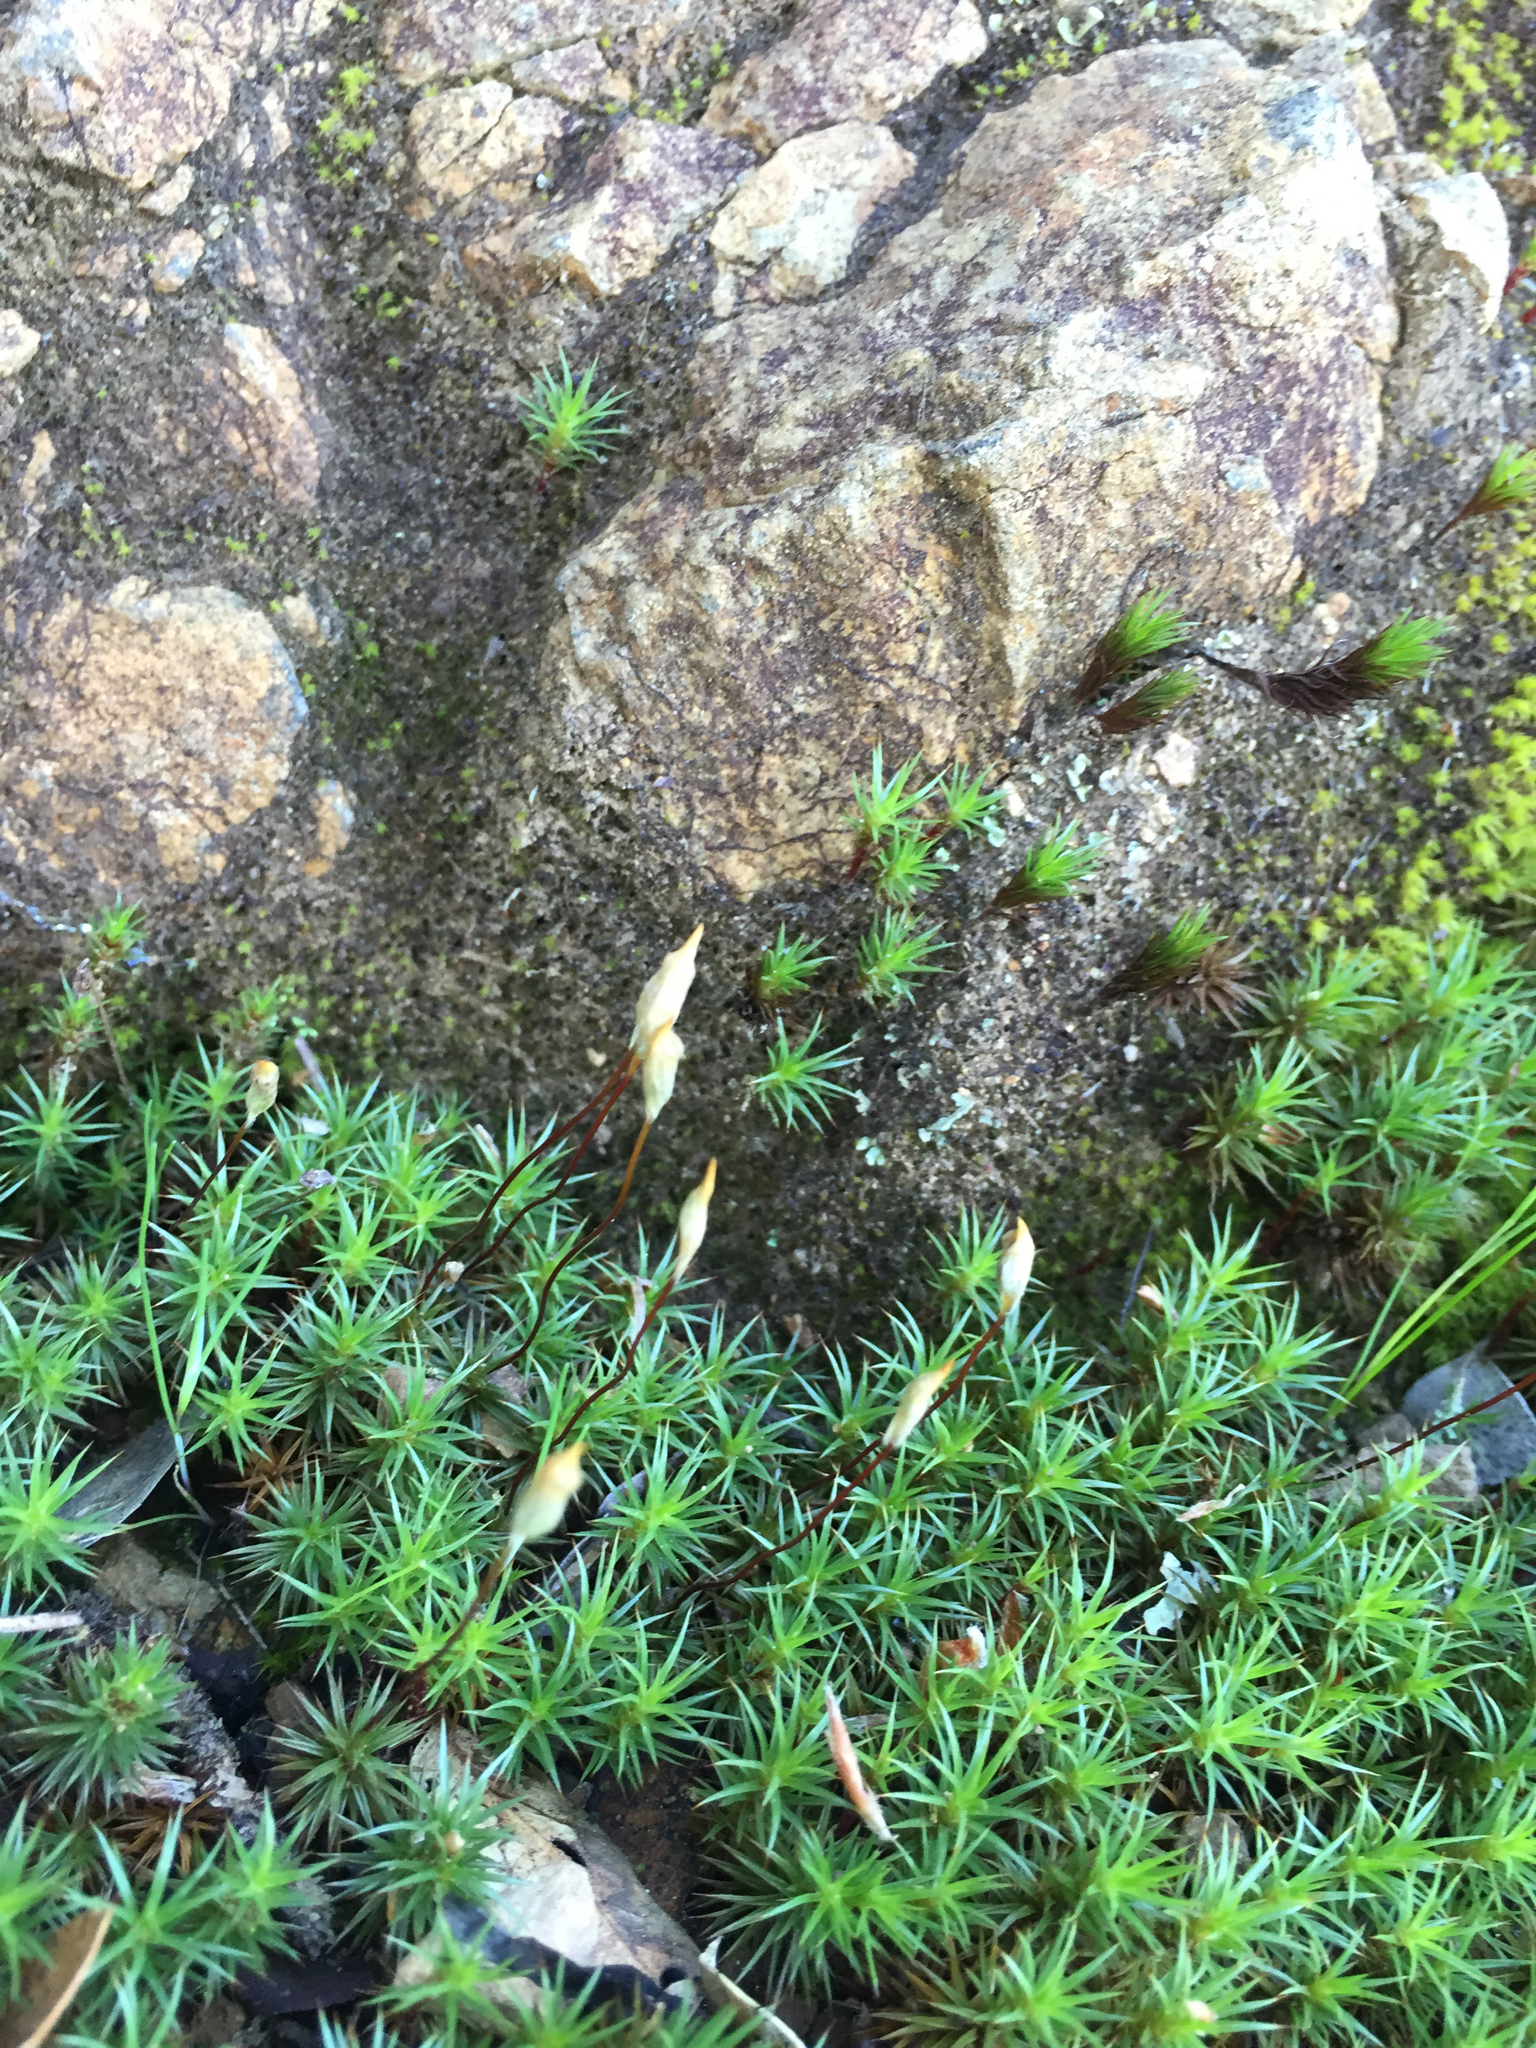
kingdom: Plantae
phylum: Bryophyta
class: Polytrichopsida
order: Polytrichales
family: Polytrichaceae
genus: Polytrichum
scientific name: Polytrichum juniperinum
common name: Juniper haircap moss
